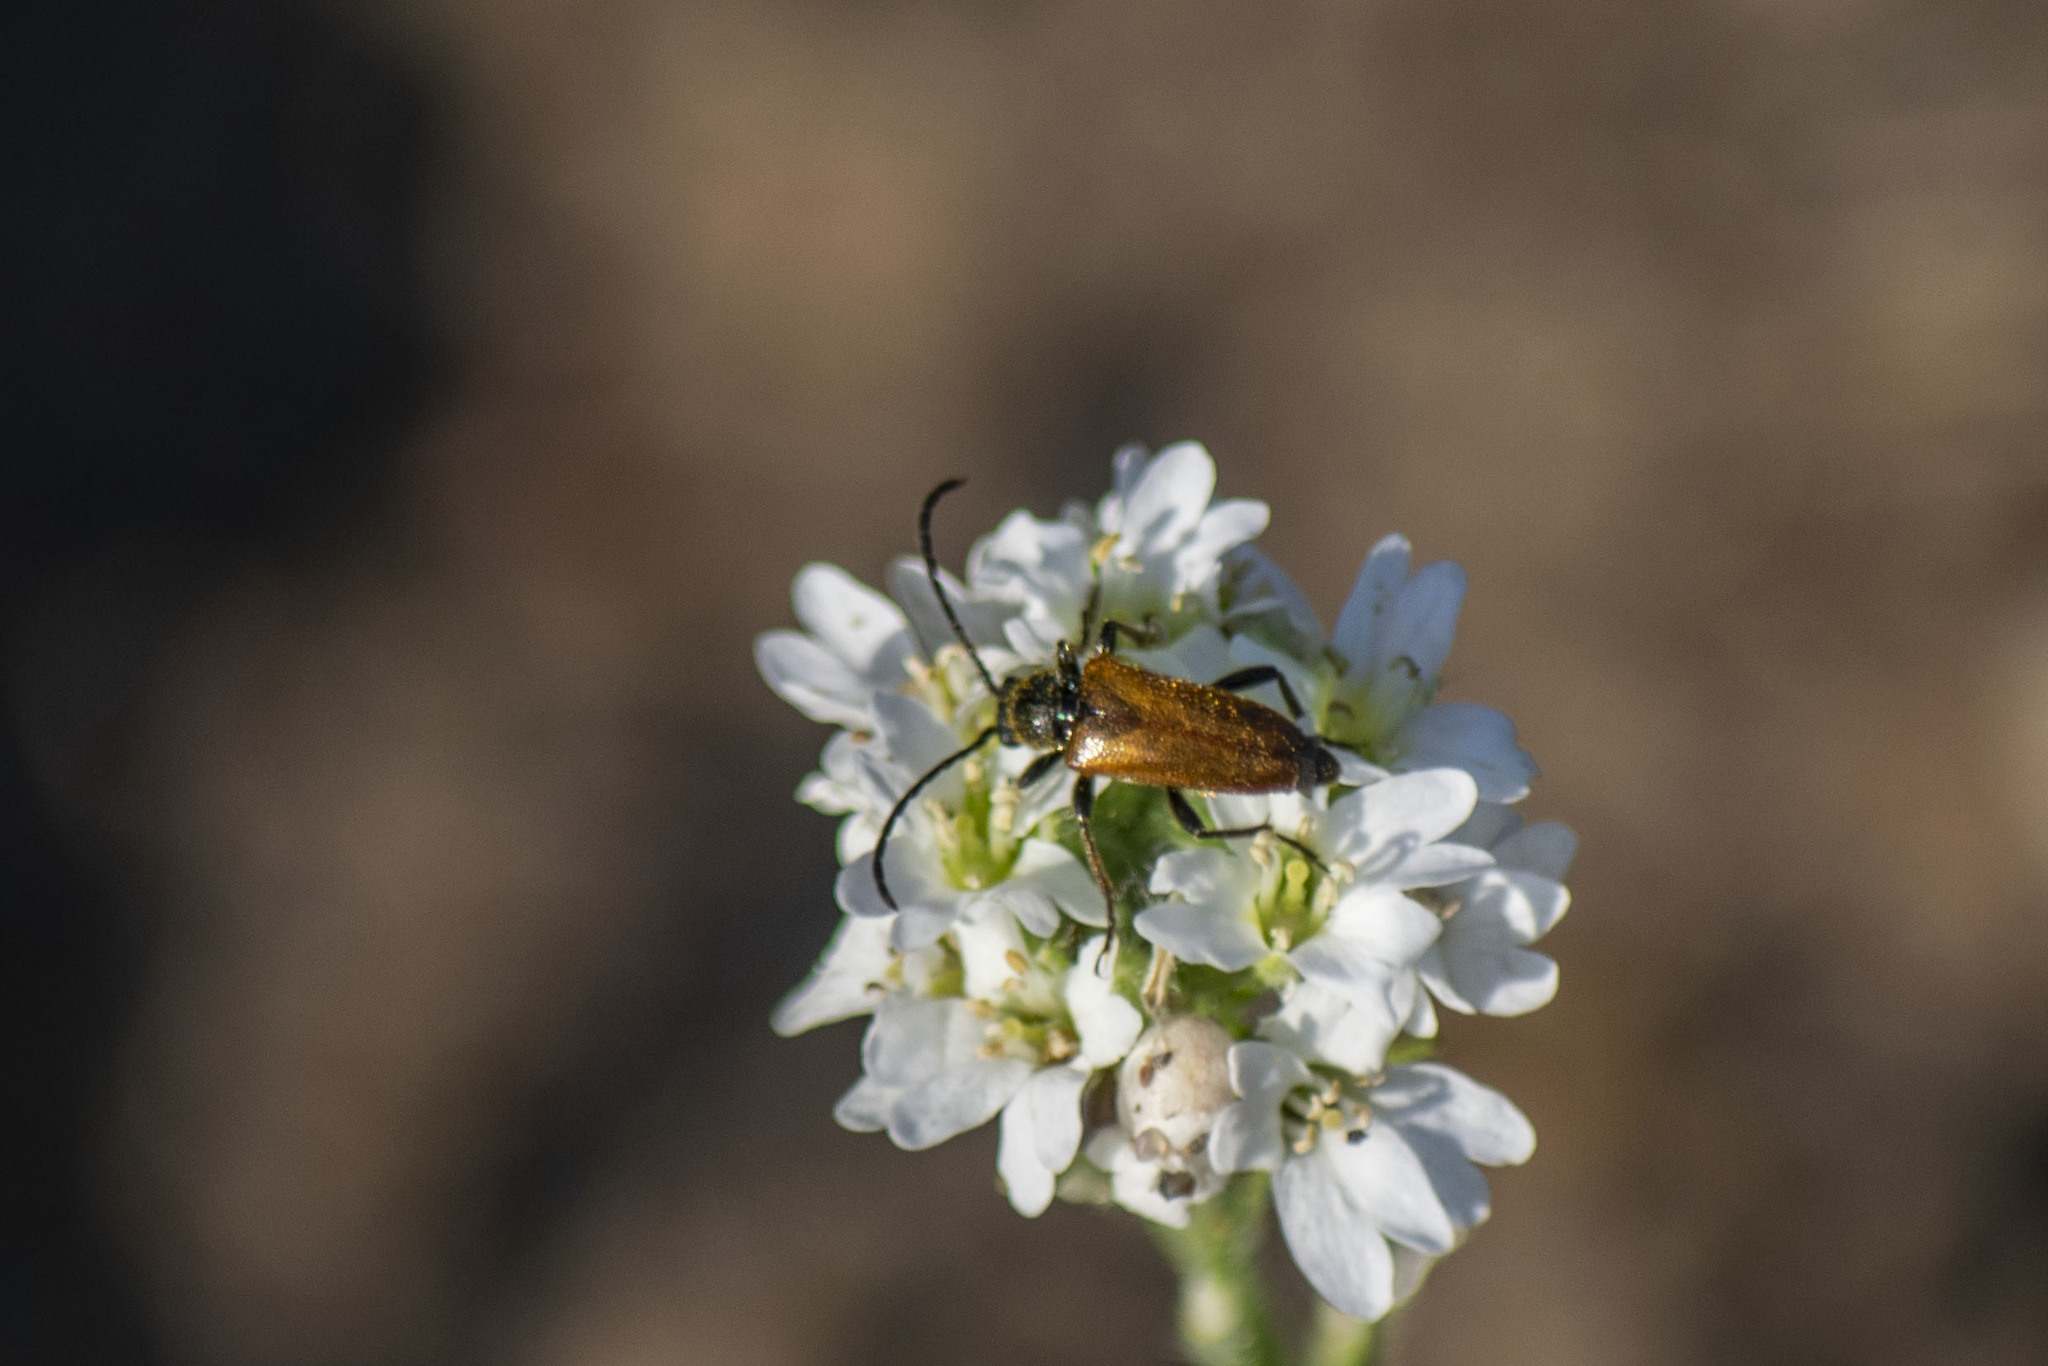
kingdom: Animalia
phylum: Arthropoda
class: Insecta
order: Coleoptera
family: Cerambycidae
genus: Pseudovadonia
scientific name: Pseudovadonia livida
